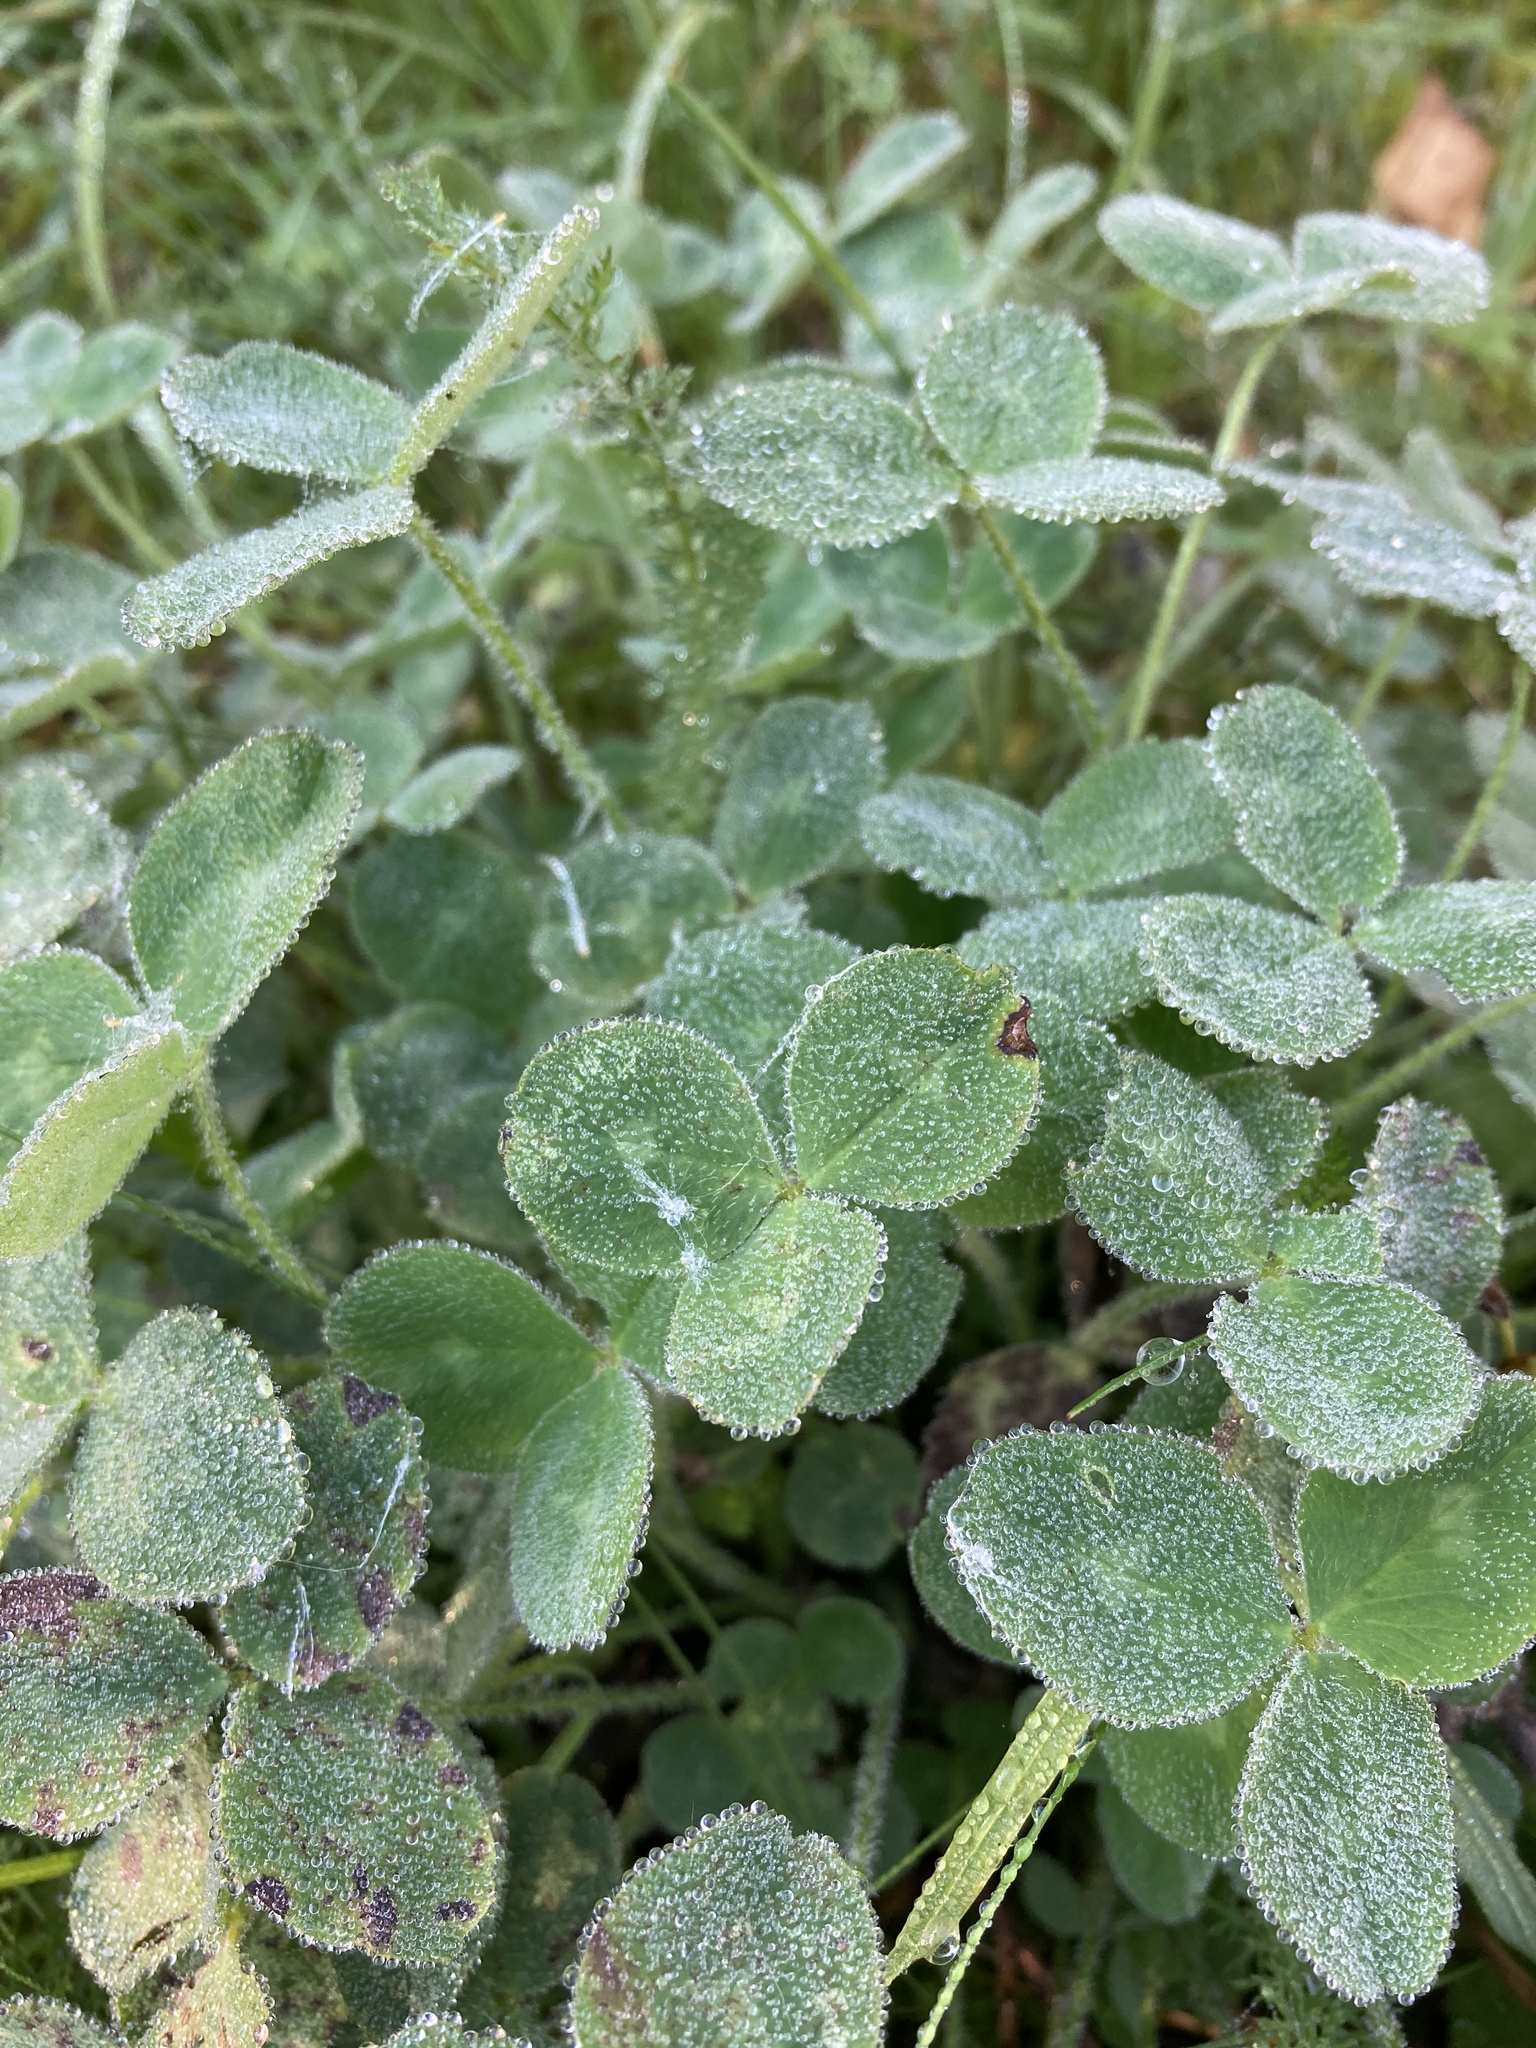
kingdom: Plantae
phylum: Tracheophyta
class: Magnoliopsida
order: Fabales
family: Fabaceae
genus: Trifolium
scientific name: Trifolium pratense
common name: Red clover
